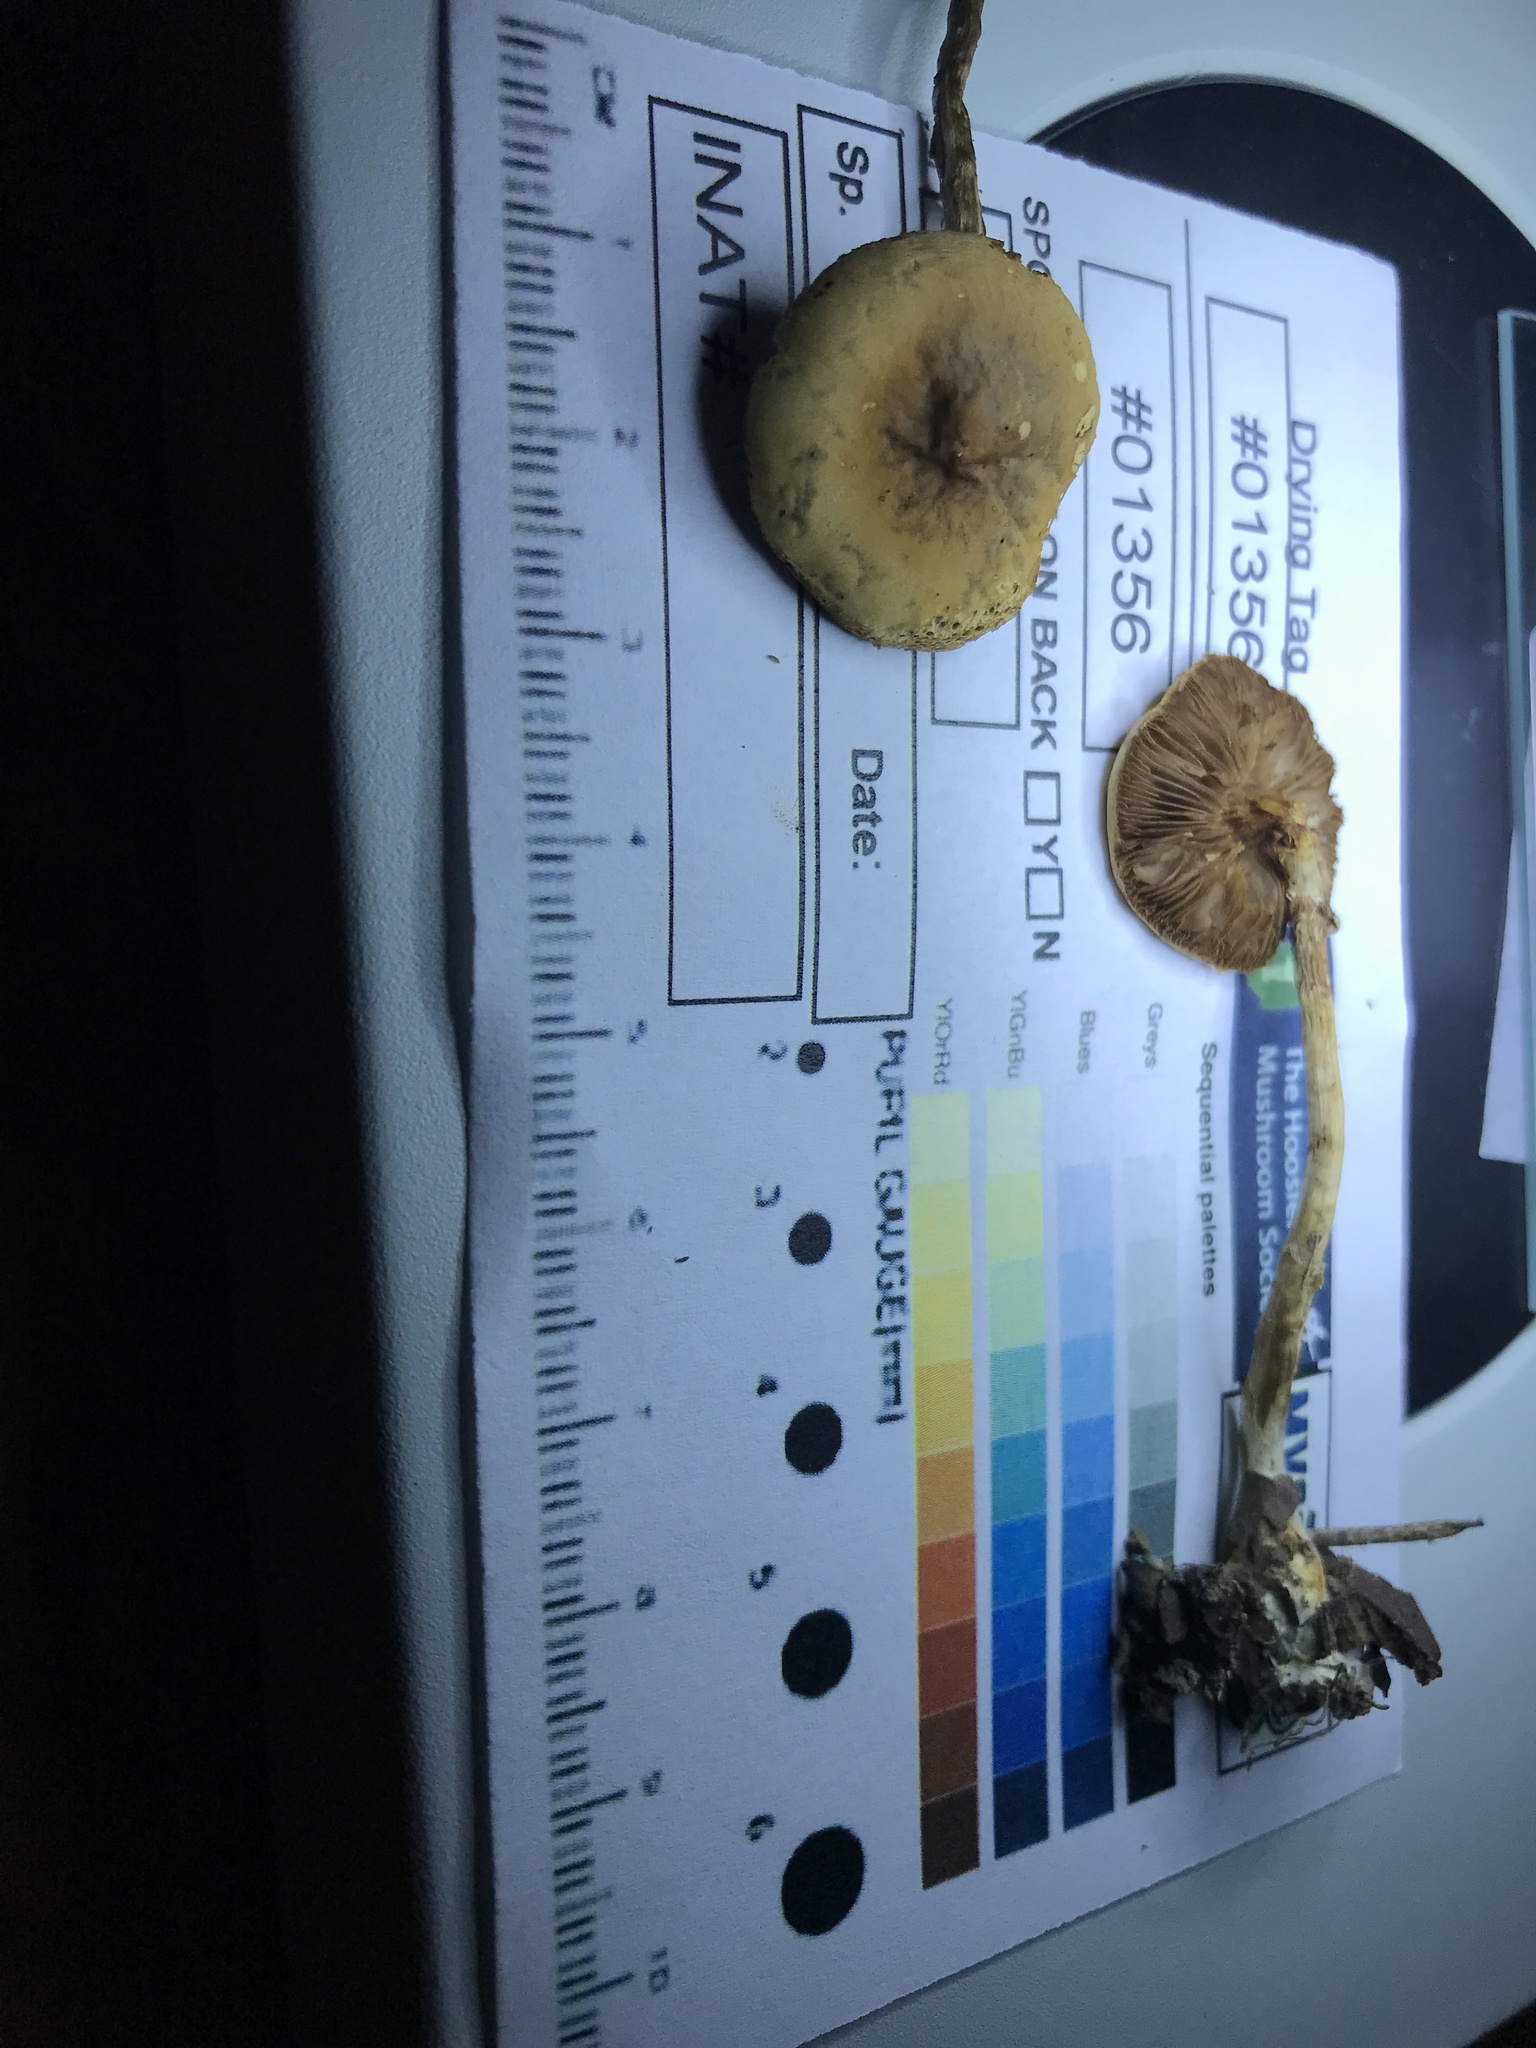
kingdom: Fungi
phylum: Basidiomycota
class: Agaricomycetes
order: Agaricales
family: Strophariaceae
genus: Agrocybe
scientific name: Agrocybe acericola
